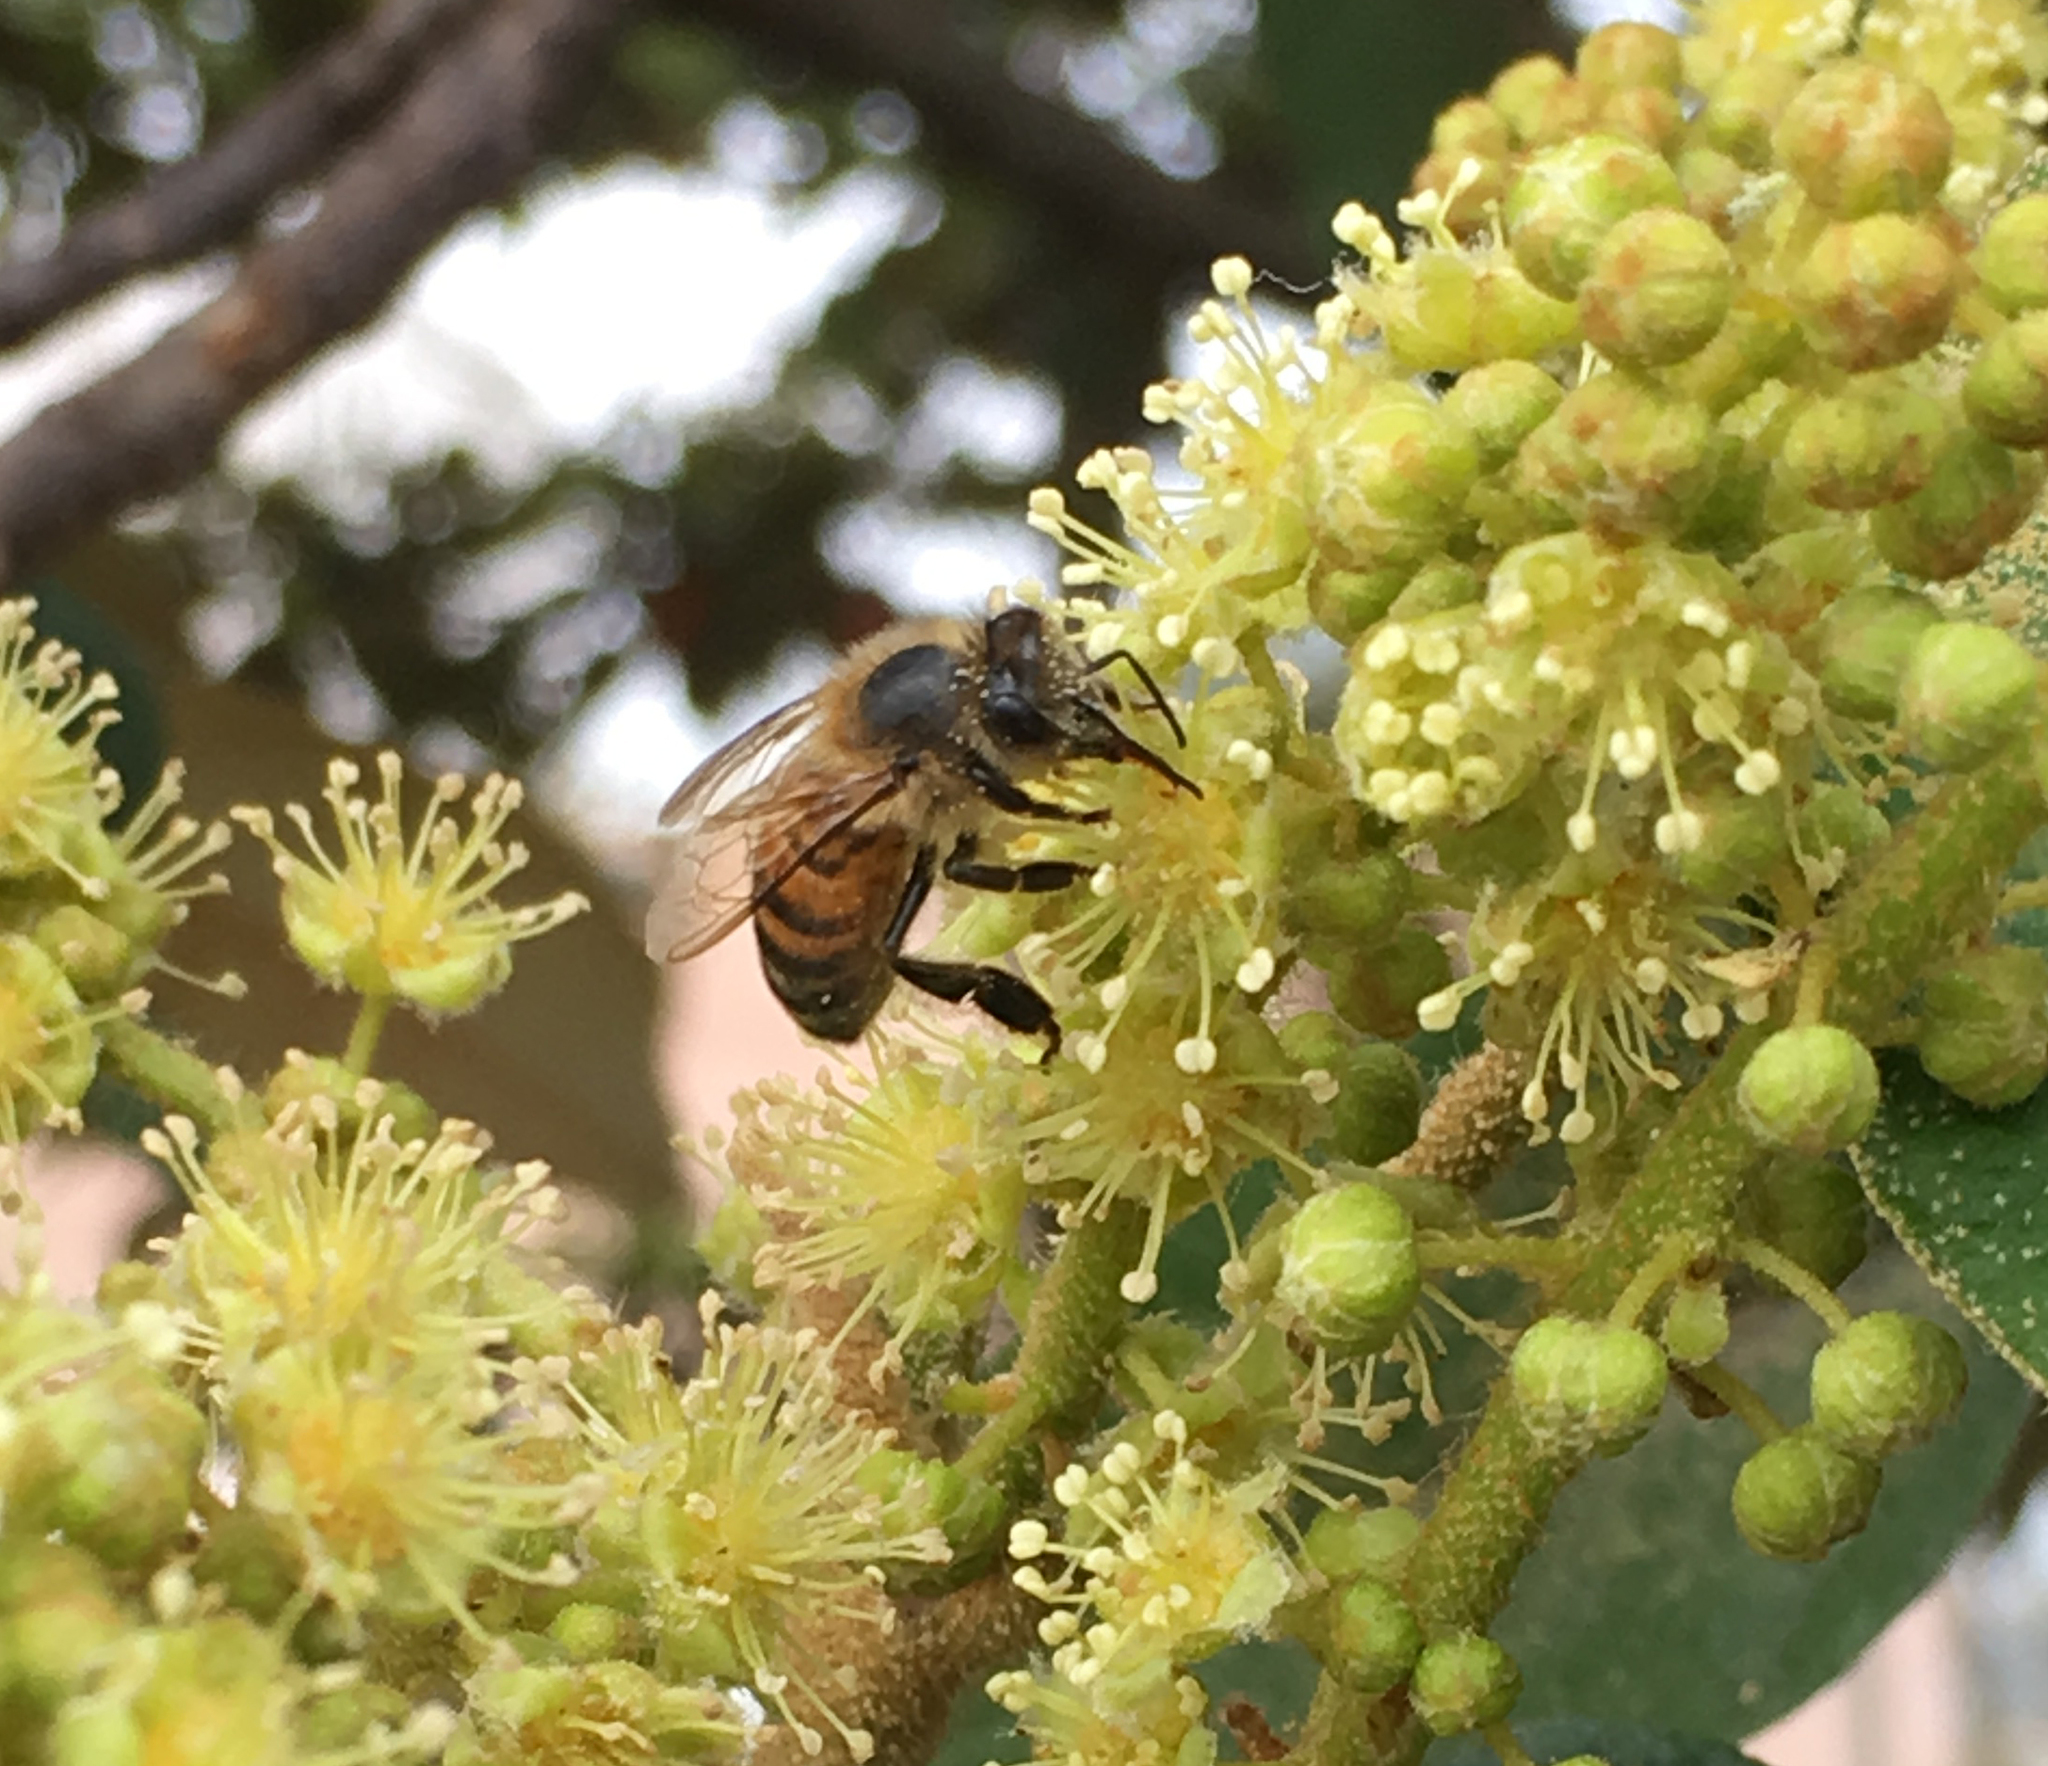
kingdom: Animalia
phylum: Arthropoda
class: Insecta
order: Hymenoptera
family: Apidae
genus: Apis
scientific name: Apis mellifera
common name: Honey bee
